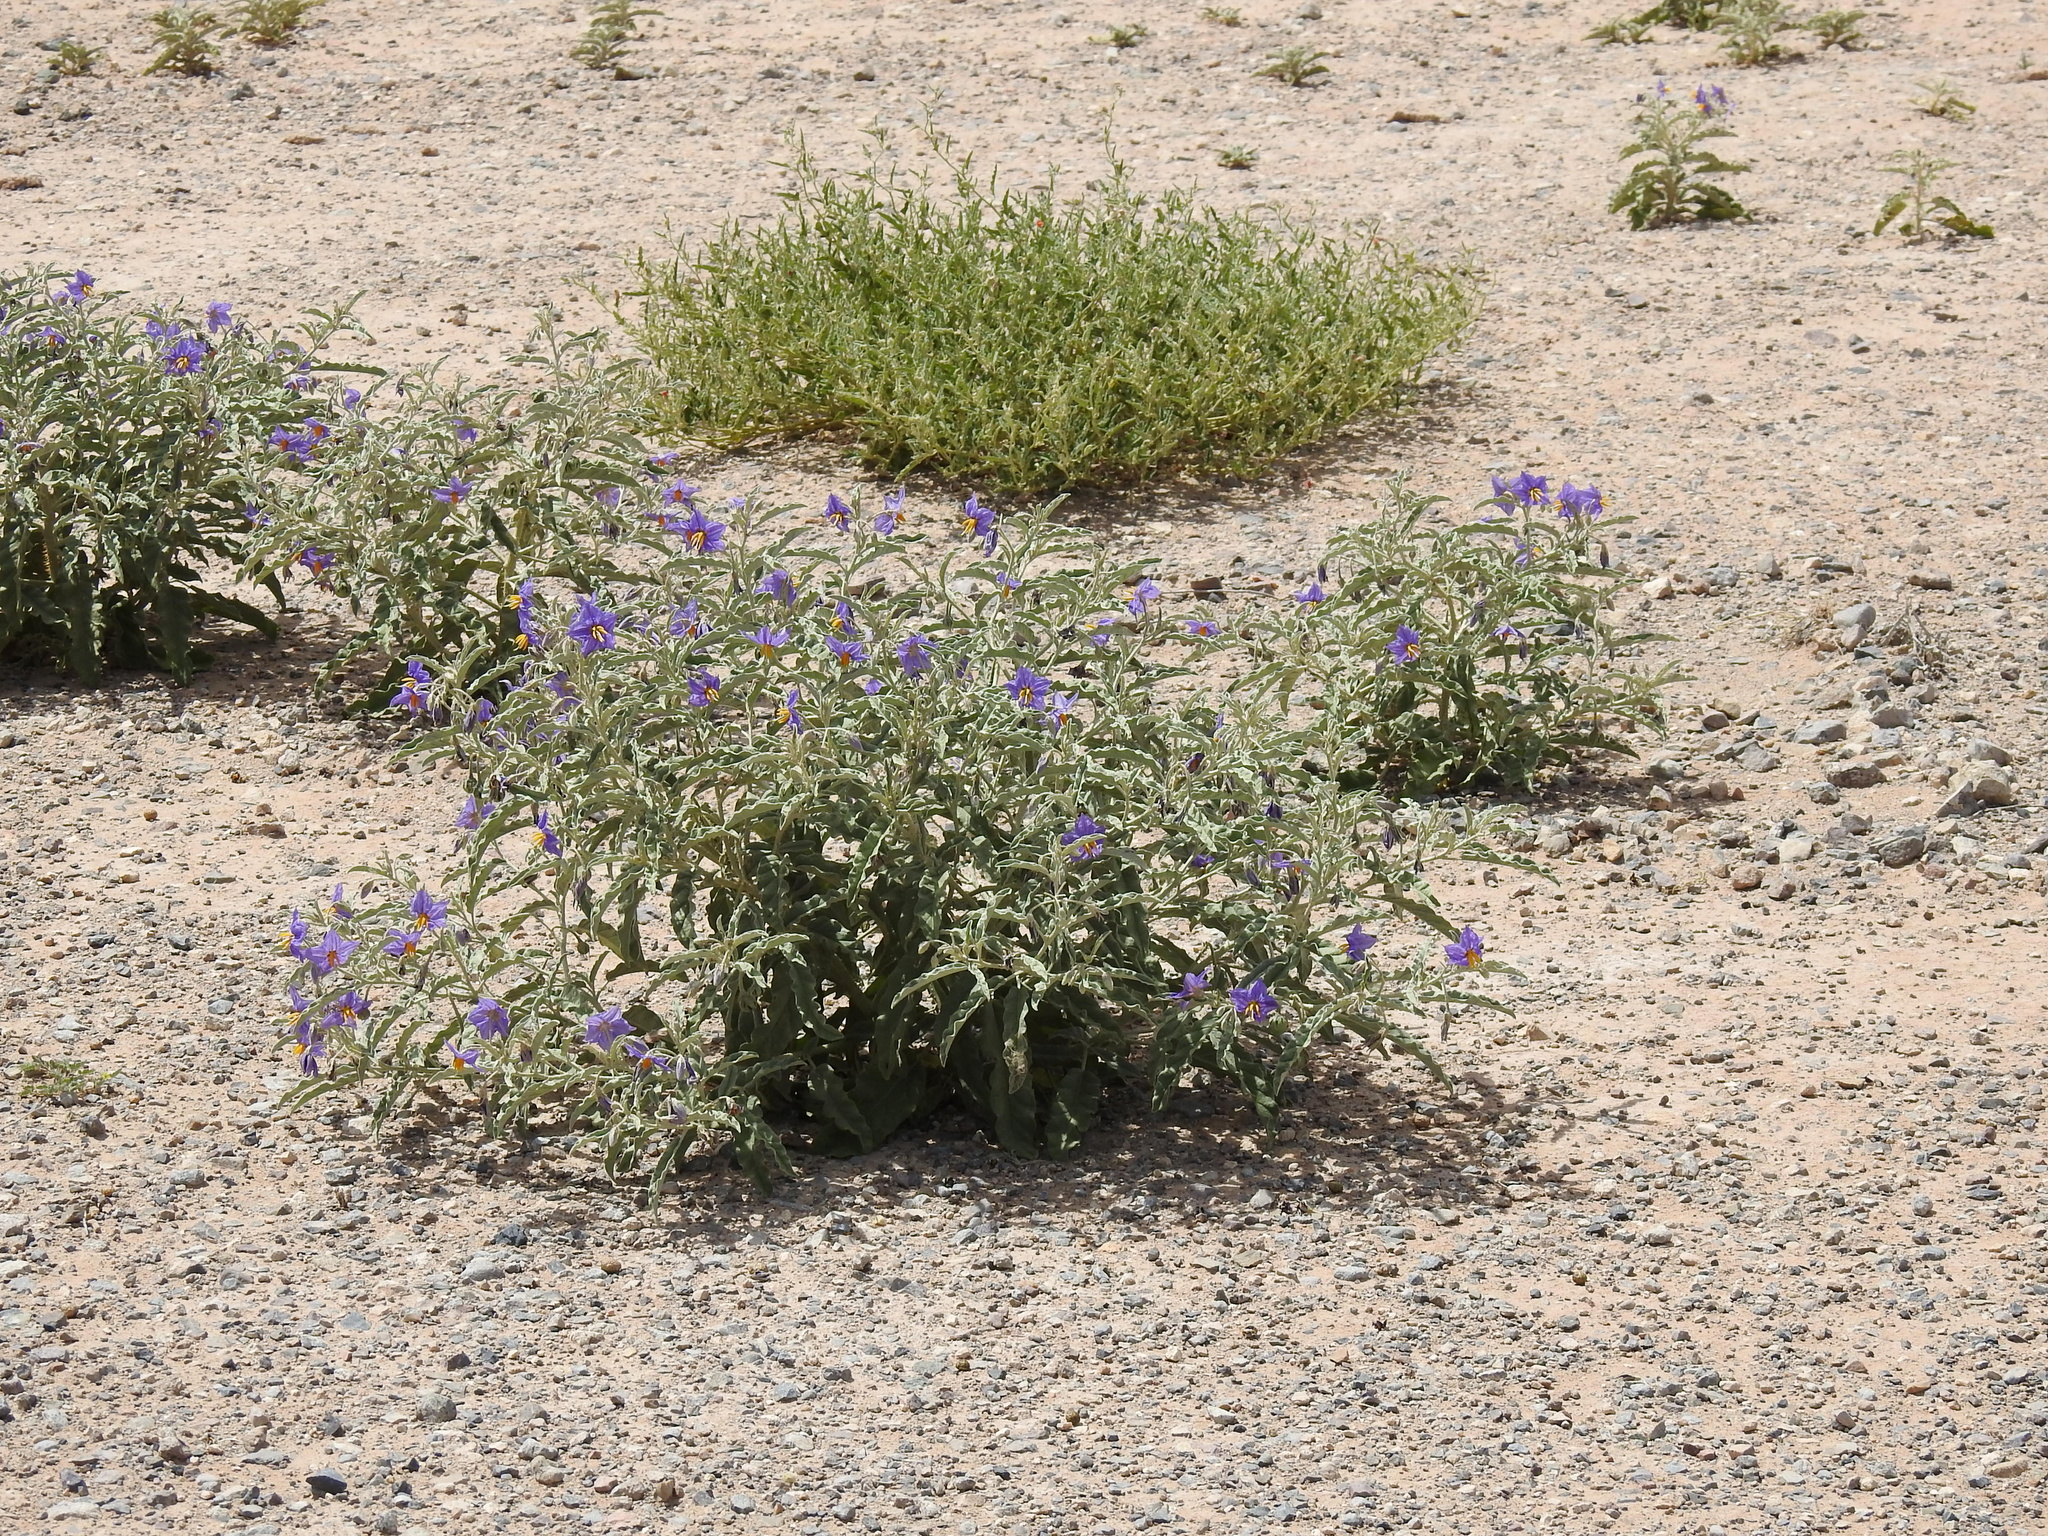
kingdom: Plantae
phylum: Tracheophyta
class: Magnoliopsida
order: Solanales
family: Solanaceae
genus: Solanum
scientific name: Solanum elaeagnifolium
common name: Silverleaf nightshade
